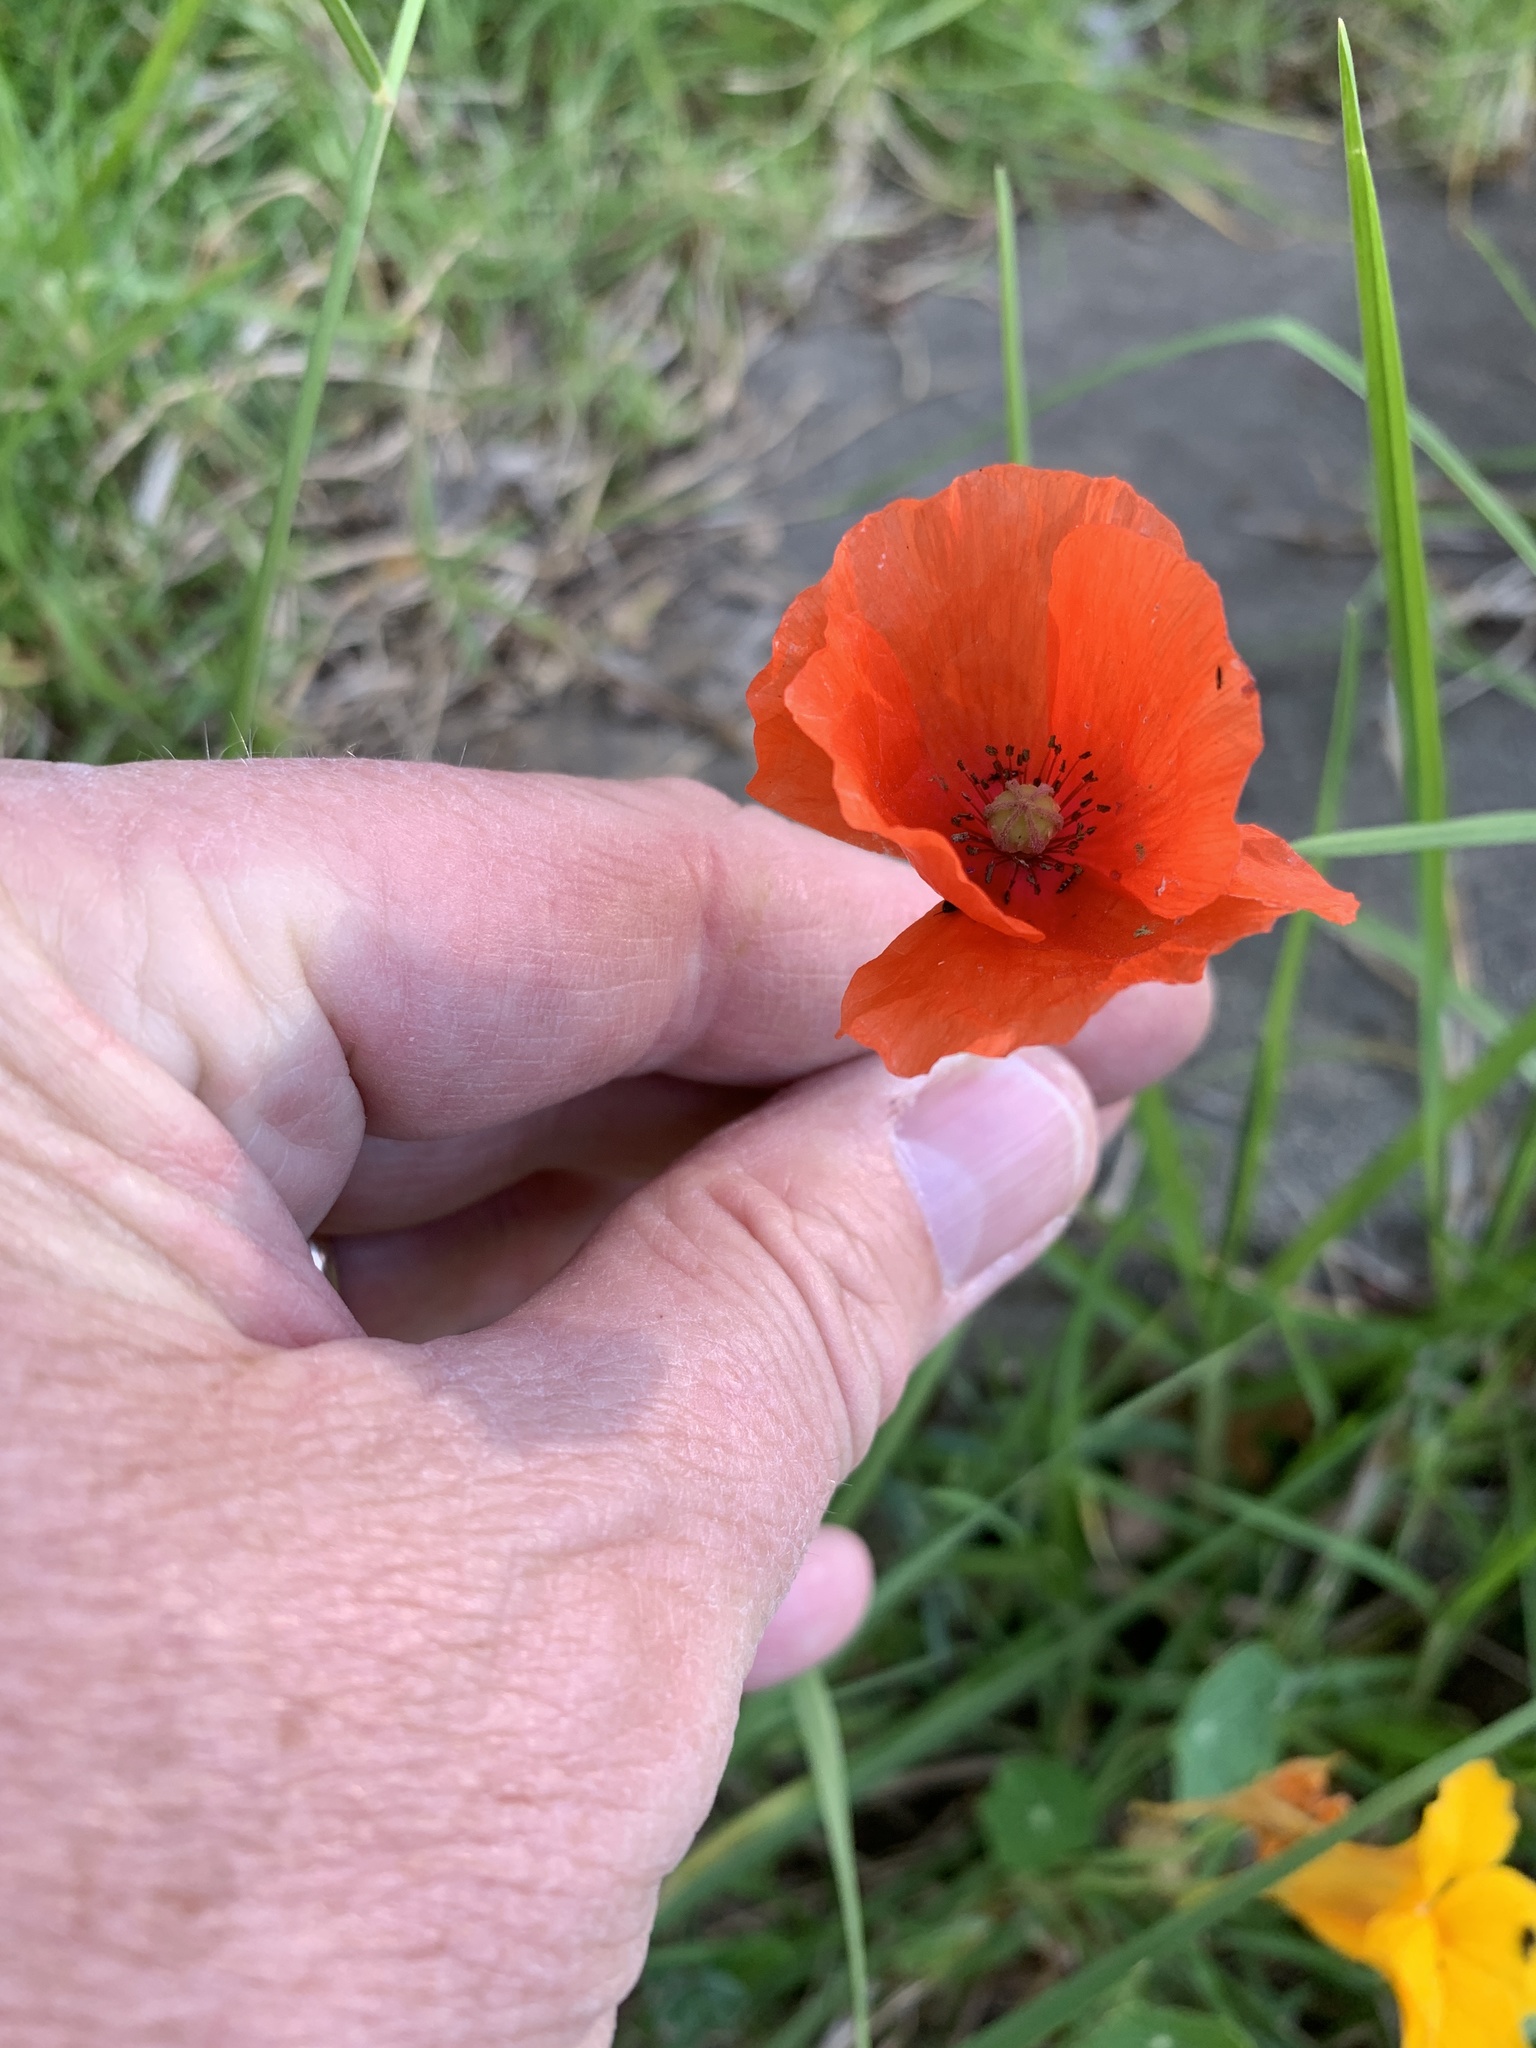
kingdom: Plantae
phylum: Tracheophyta
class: Magnoliopsida
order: Ranunculales
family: Papaveraceae
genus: Papaver
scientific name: Papaver rhoeas
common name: Corn poppy
